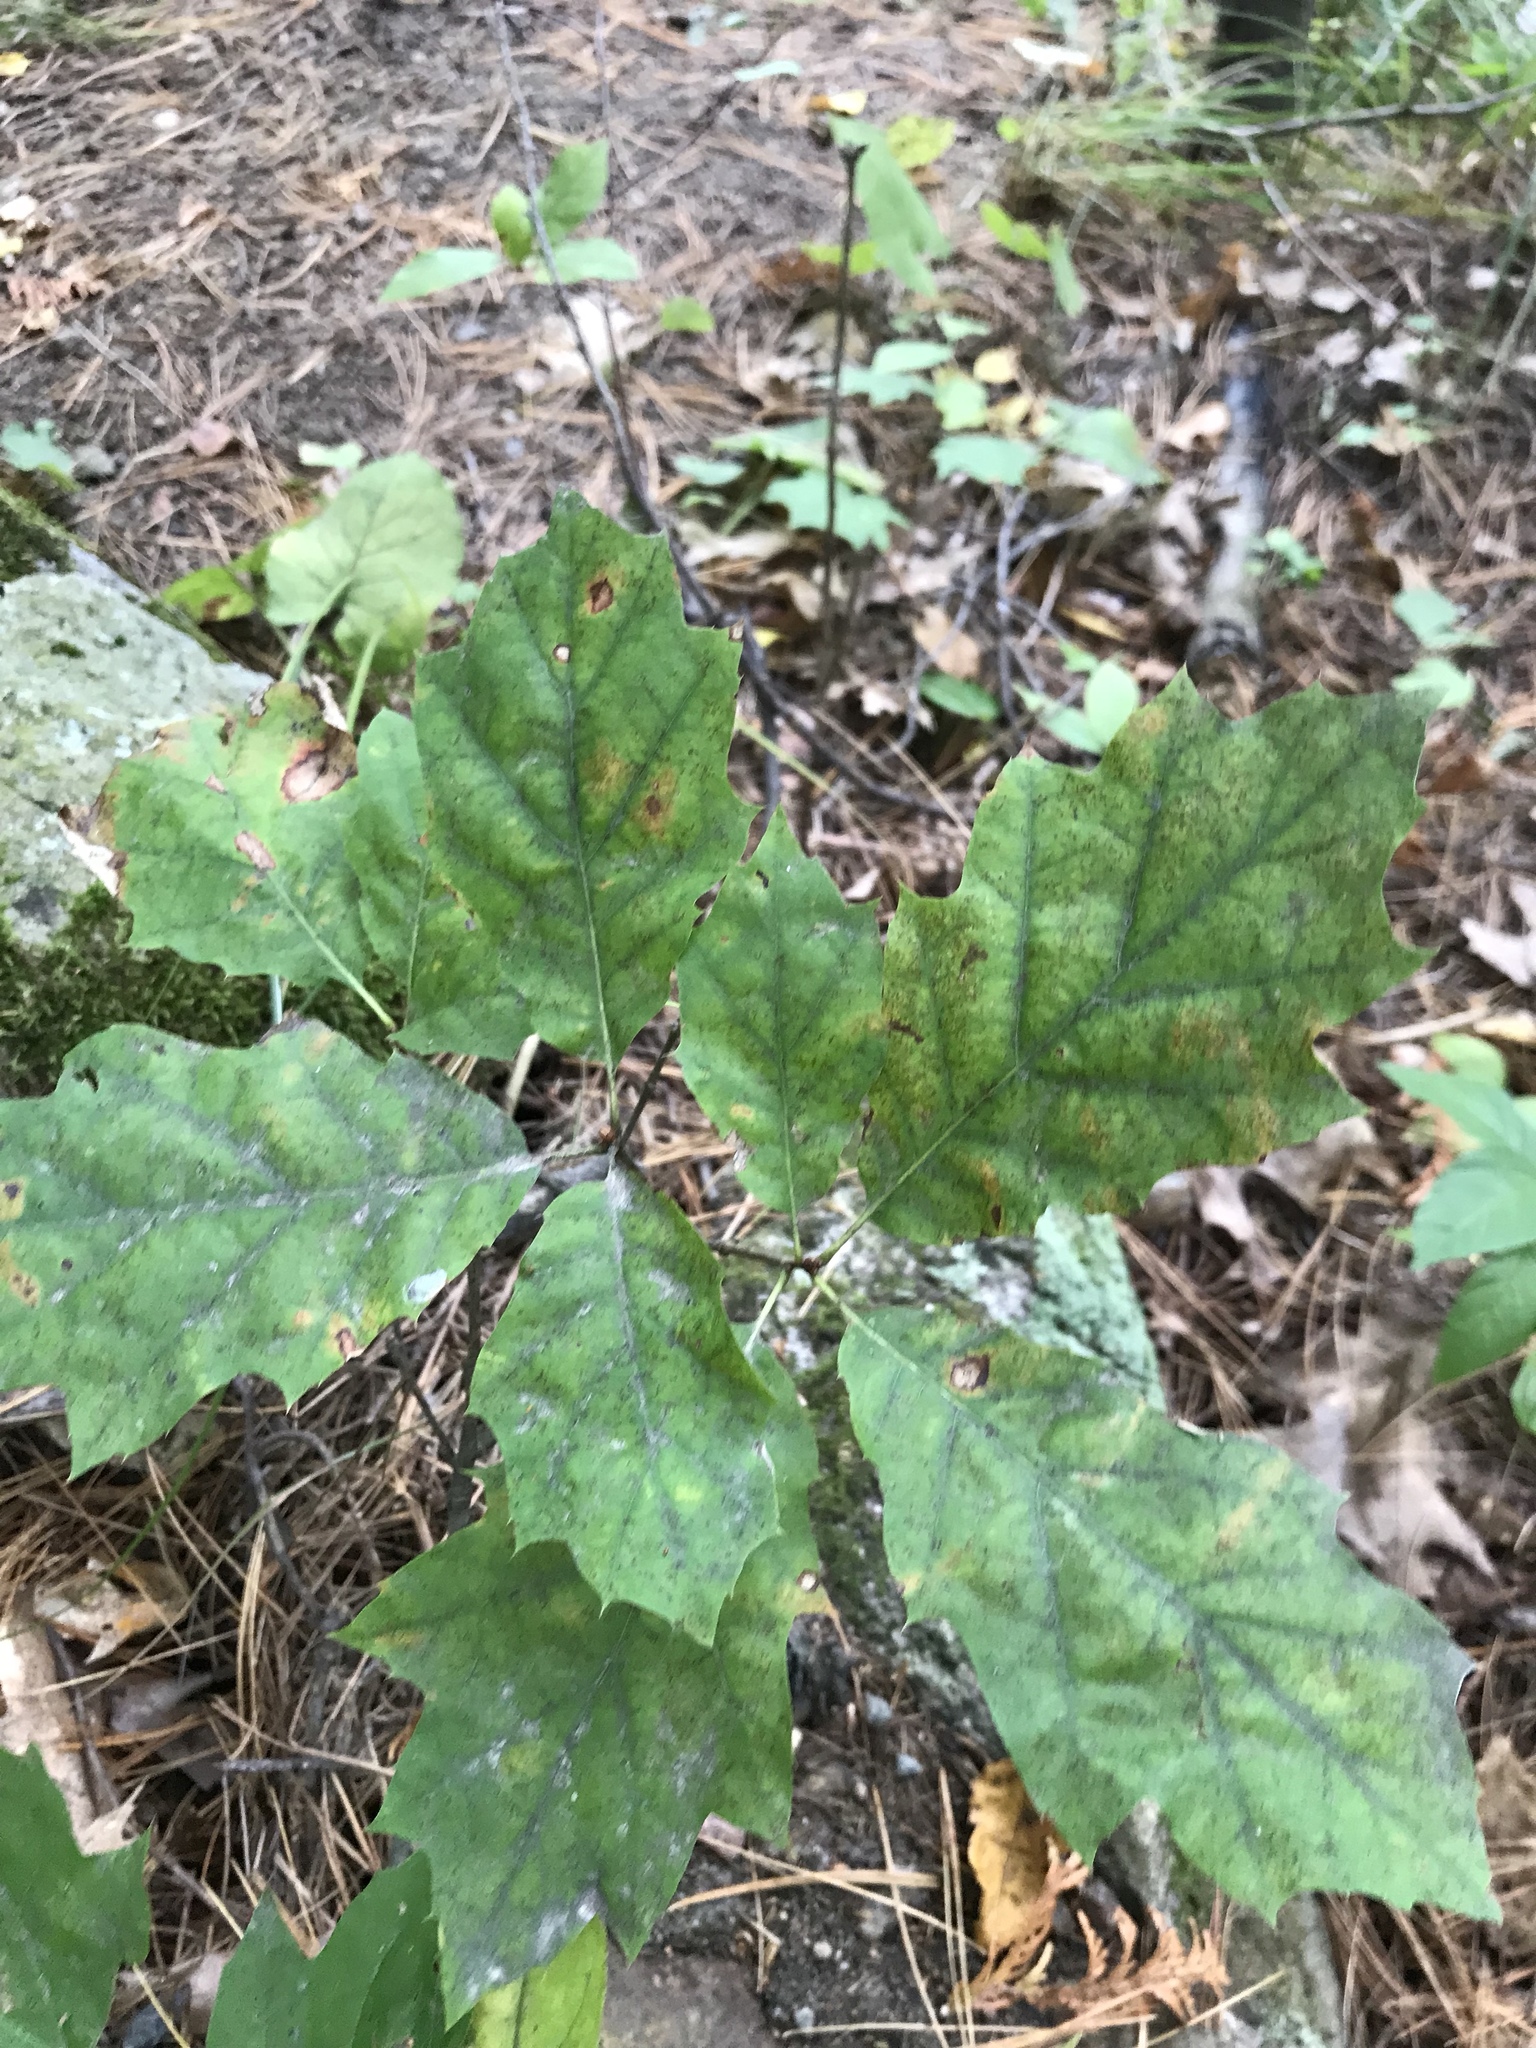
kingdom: Plantae
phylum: Tracheophyta
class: Magnoliopsida
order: Fagales
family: Fagaceae
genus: Quercus
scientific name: Quercus rubra
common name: Red oak
